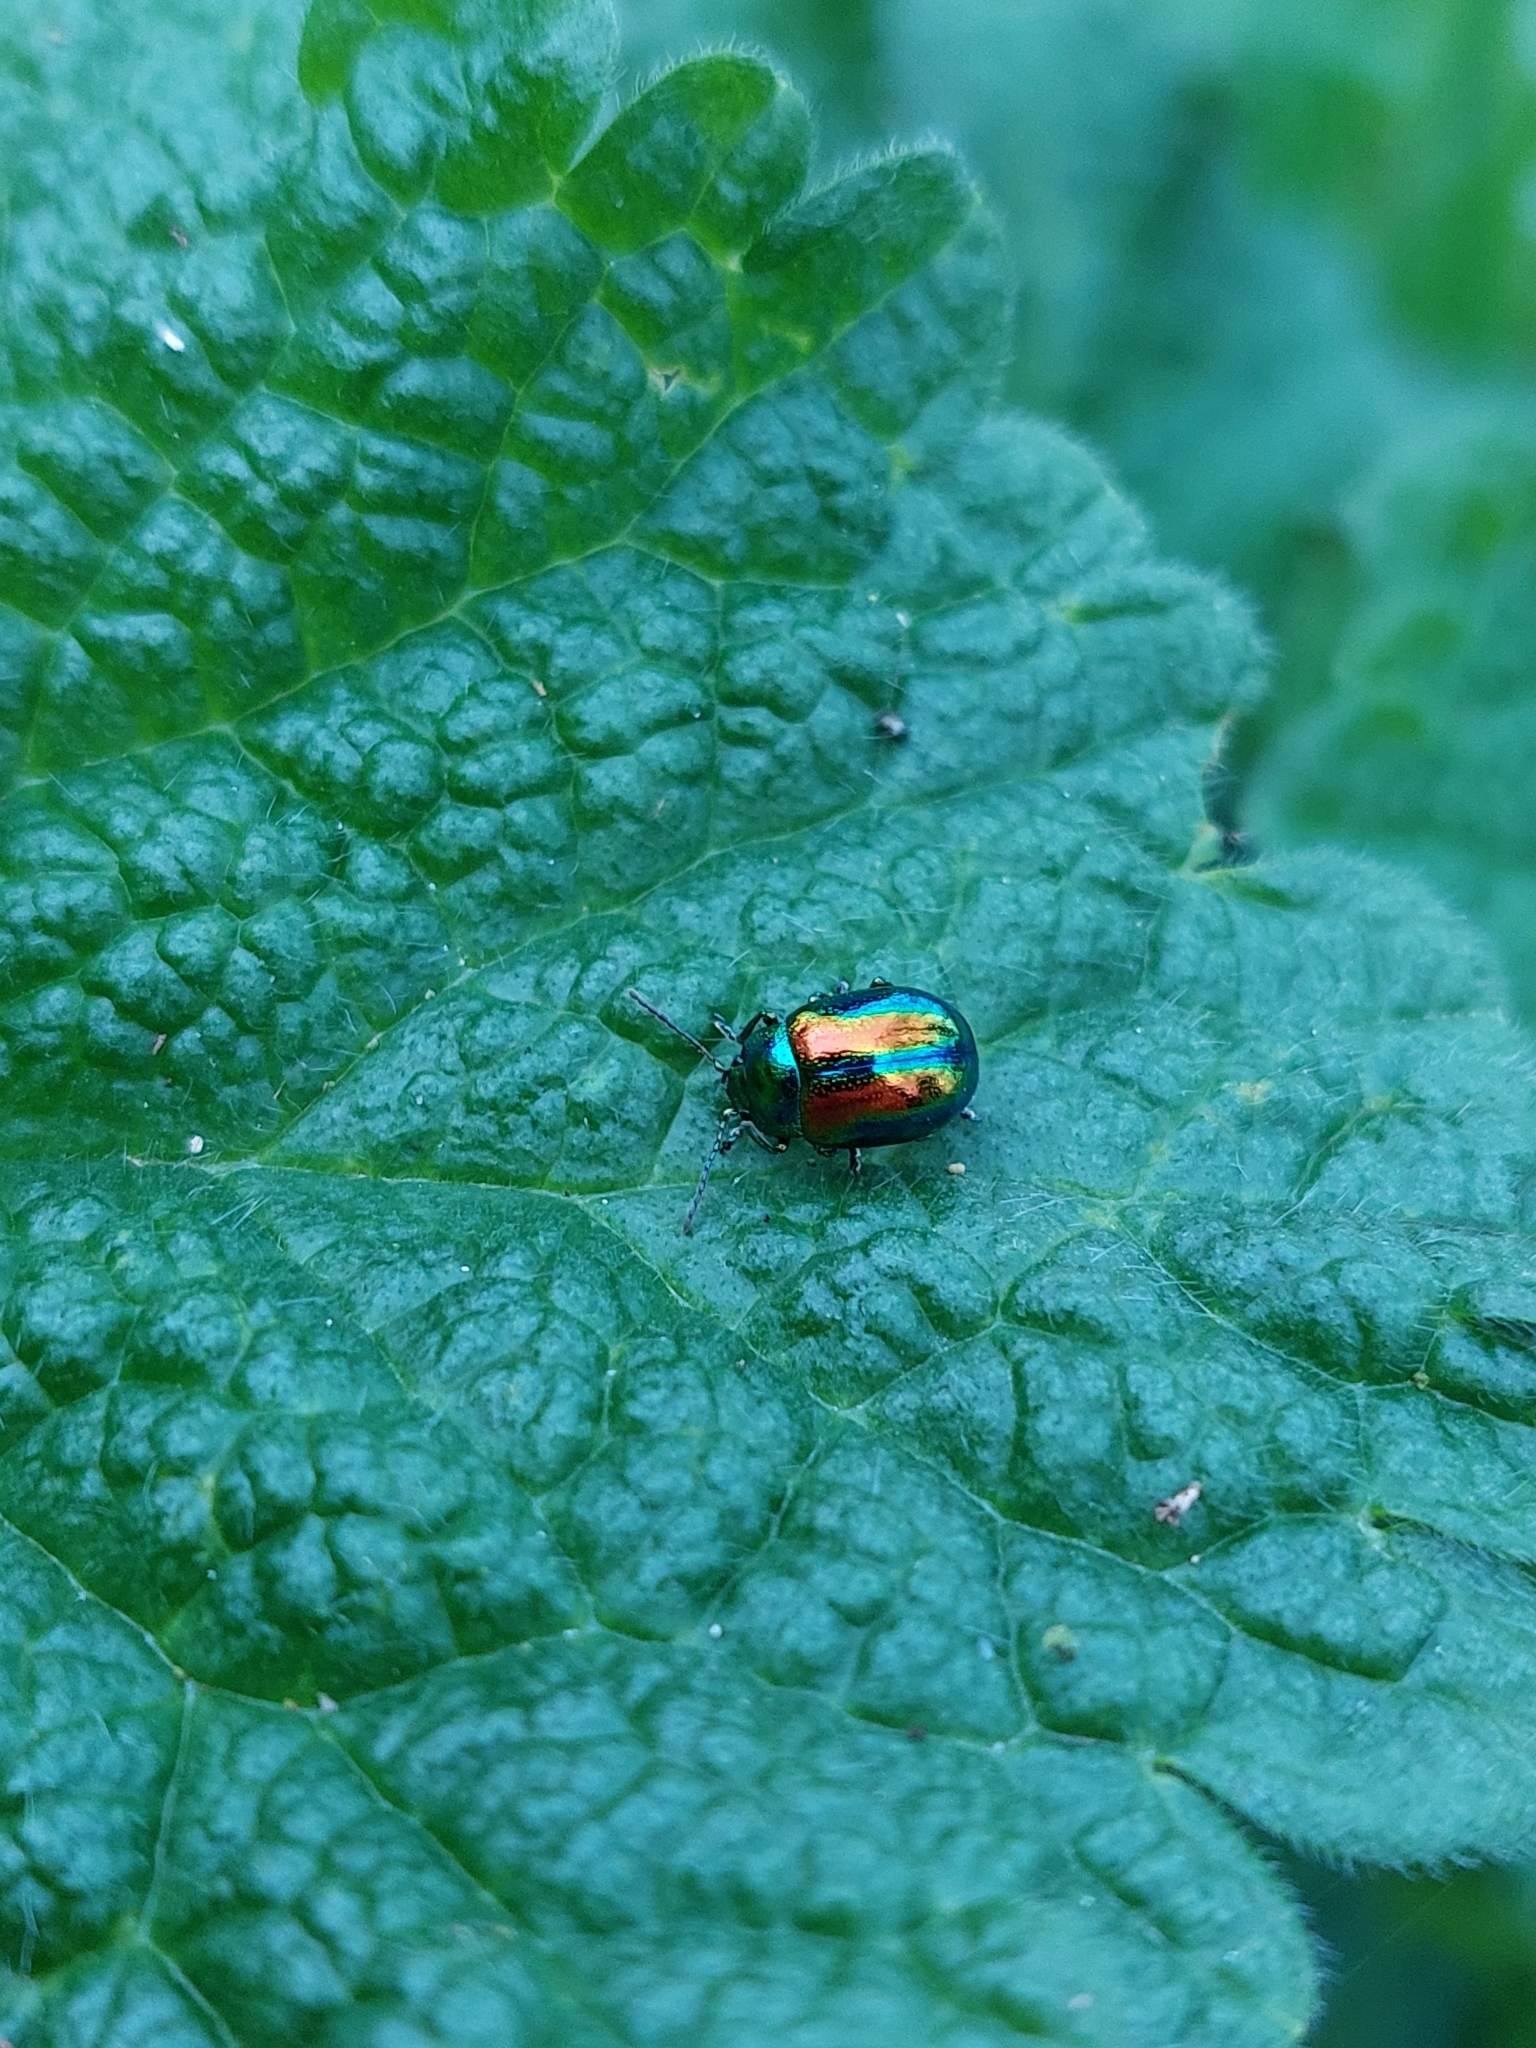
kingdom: Animalia
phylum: Arthropoda
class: Insecta
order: Coleoptera
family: Chrysomelidae
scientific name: Chrysomelidae
